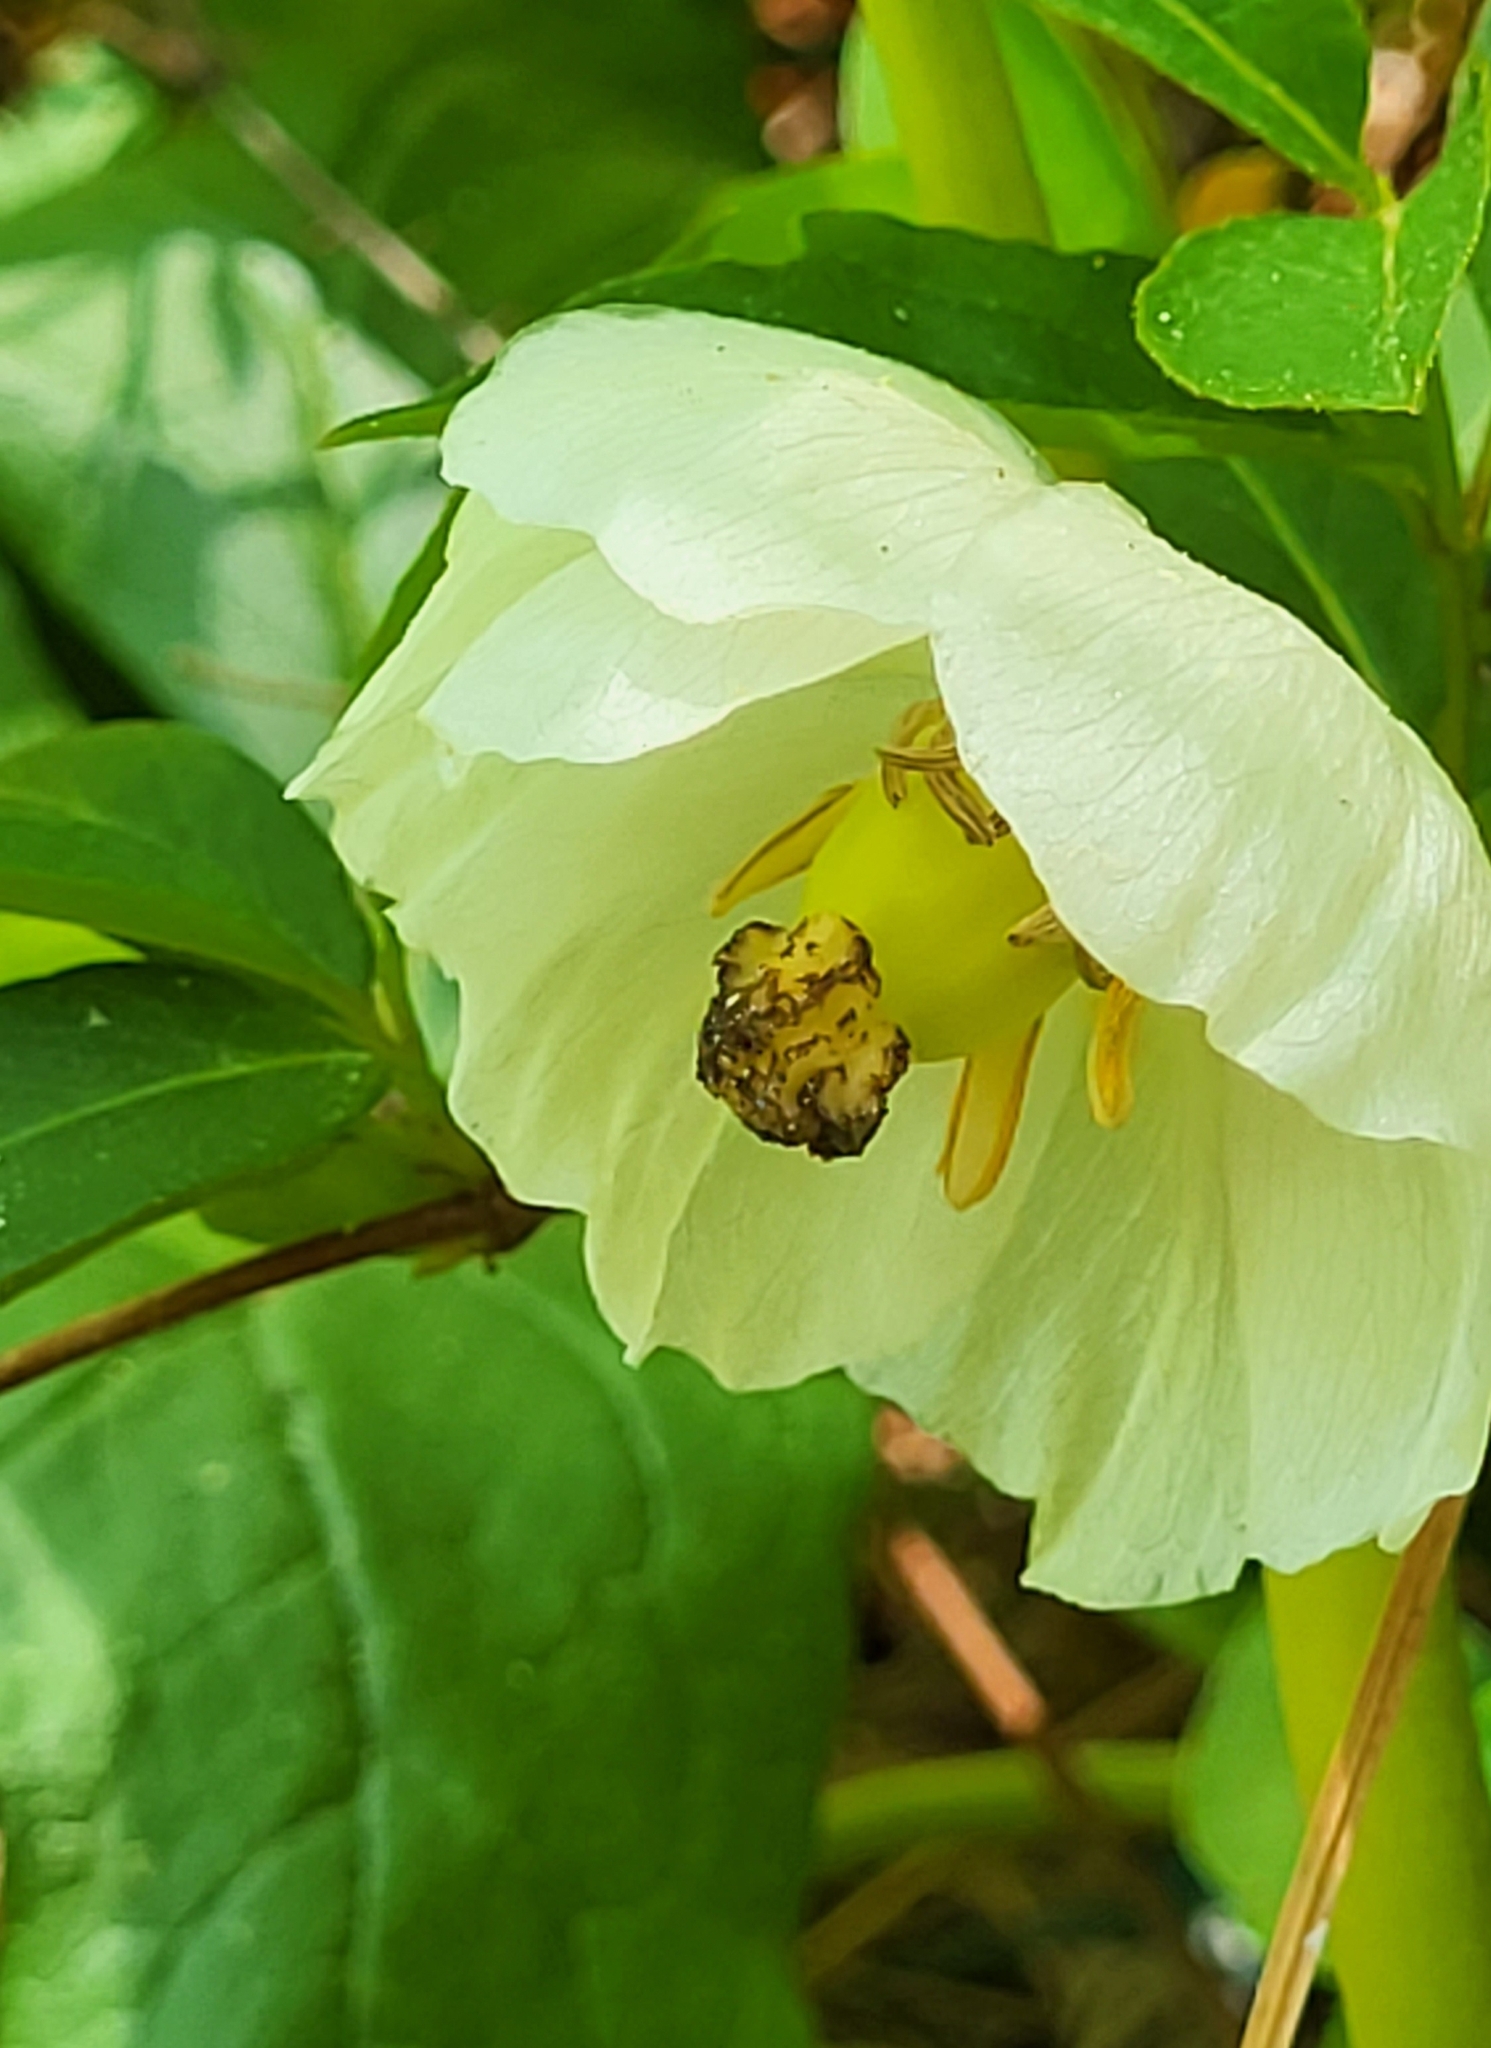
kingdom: Plantae
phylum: Tracheophyta
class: Magnoliopsida
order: Ranunculales
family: Berberidaceae
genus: Podophyllum
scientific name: Podophyllum peltatum
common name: Wild mandrake
